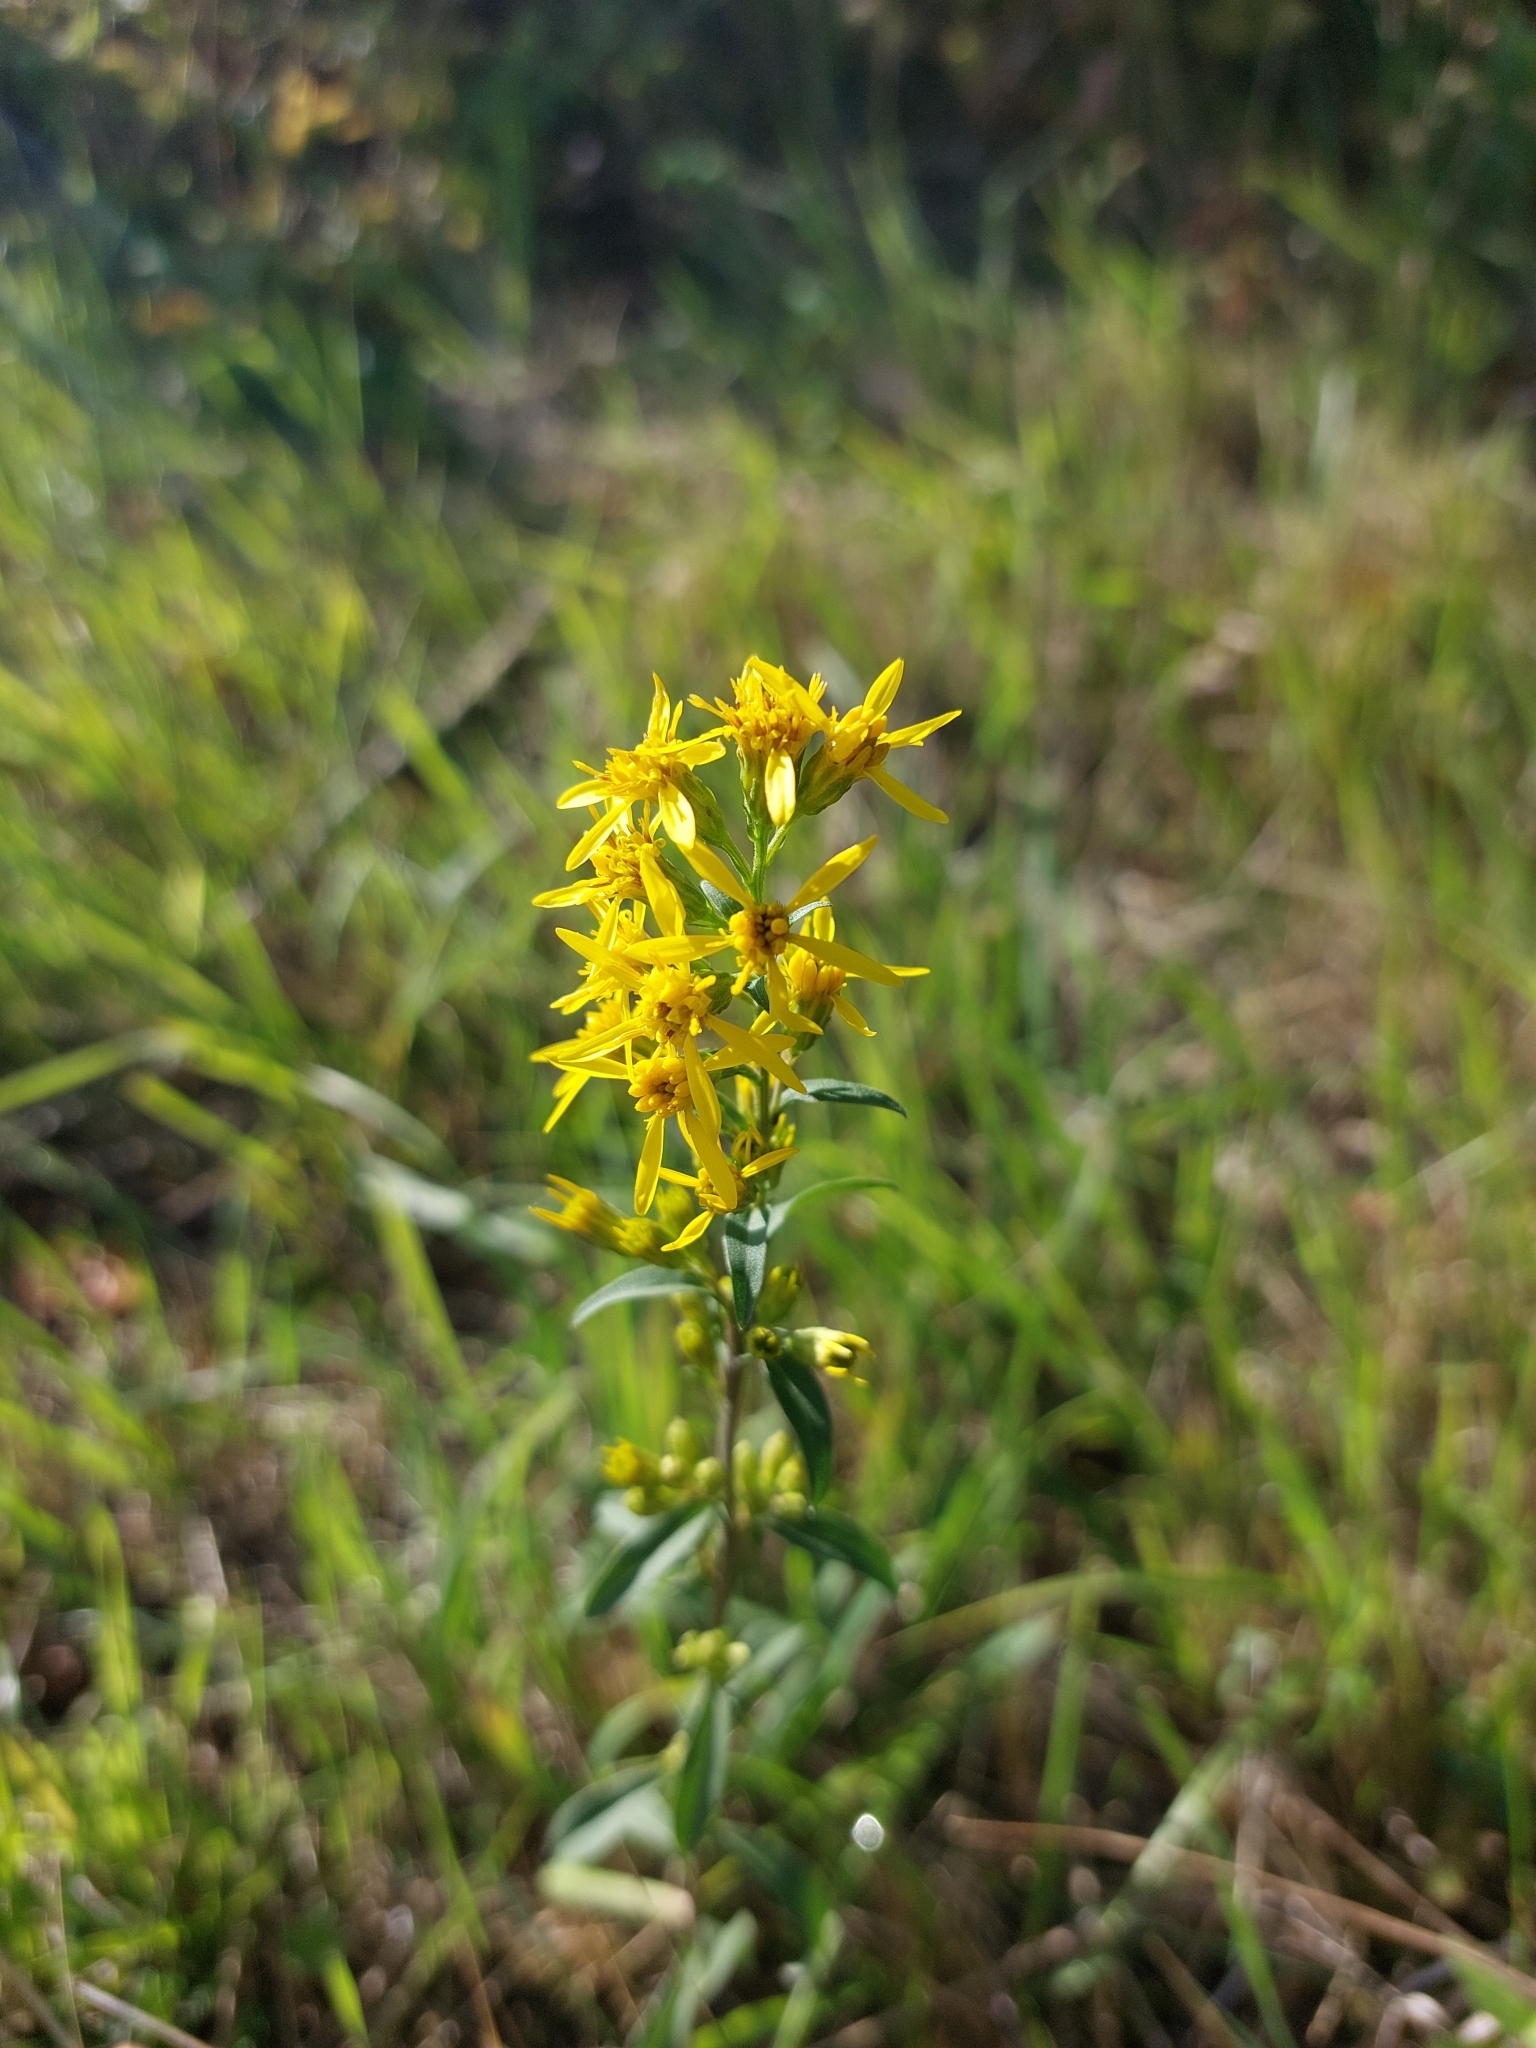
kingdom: Plantae
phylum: Tracheophyta
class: Magnoliopsida
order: Asterales
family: Asteraceae
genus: Solidago
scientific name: Solidago virgaurea
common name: Goldenrod
